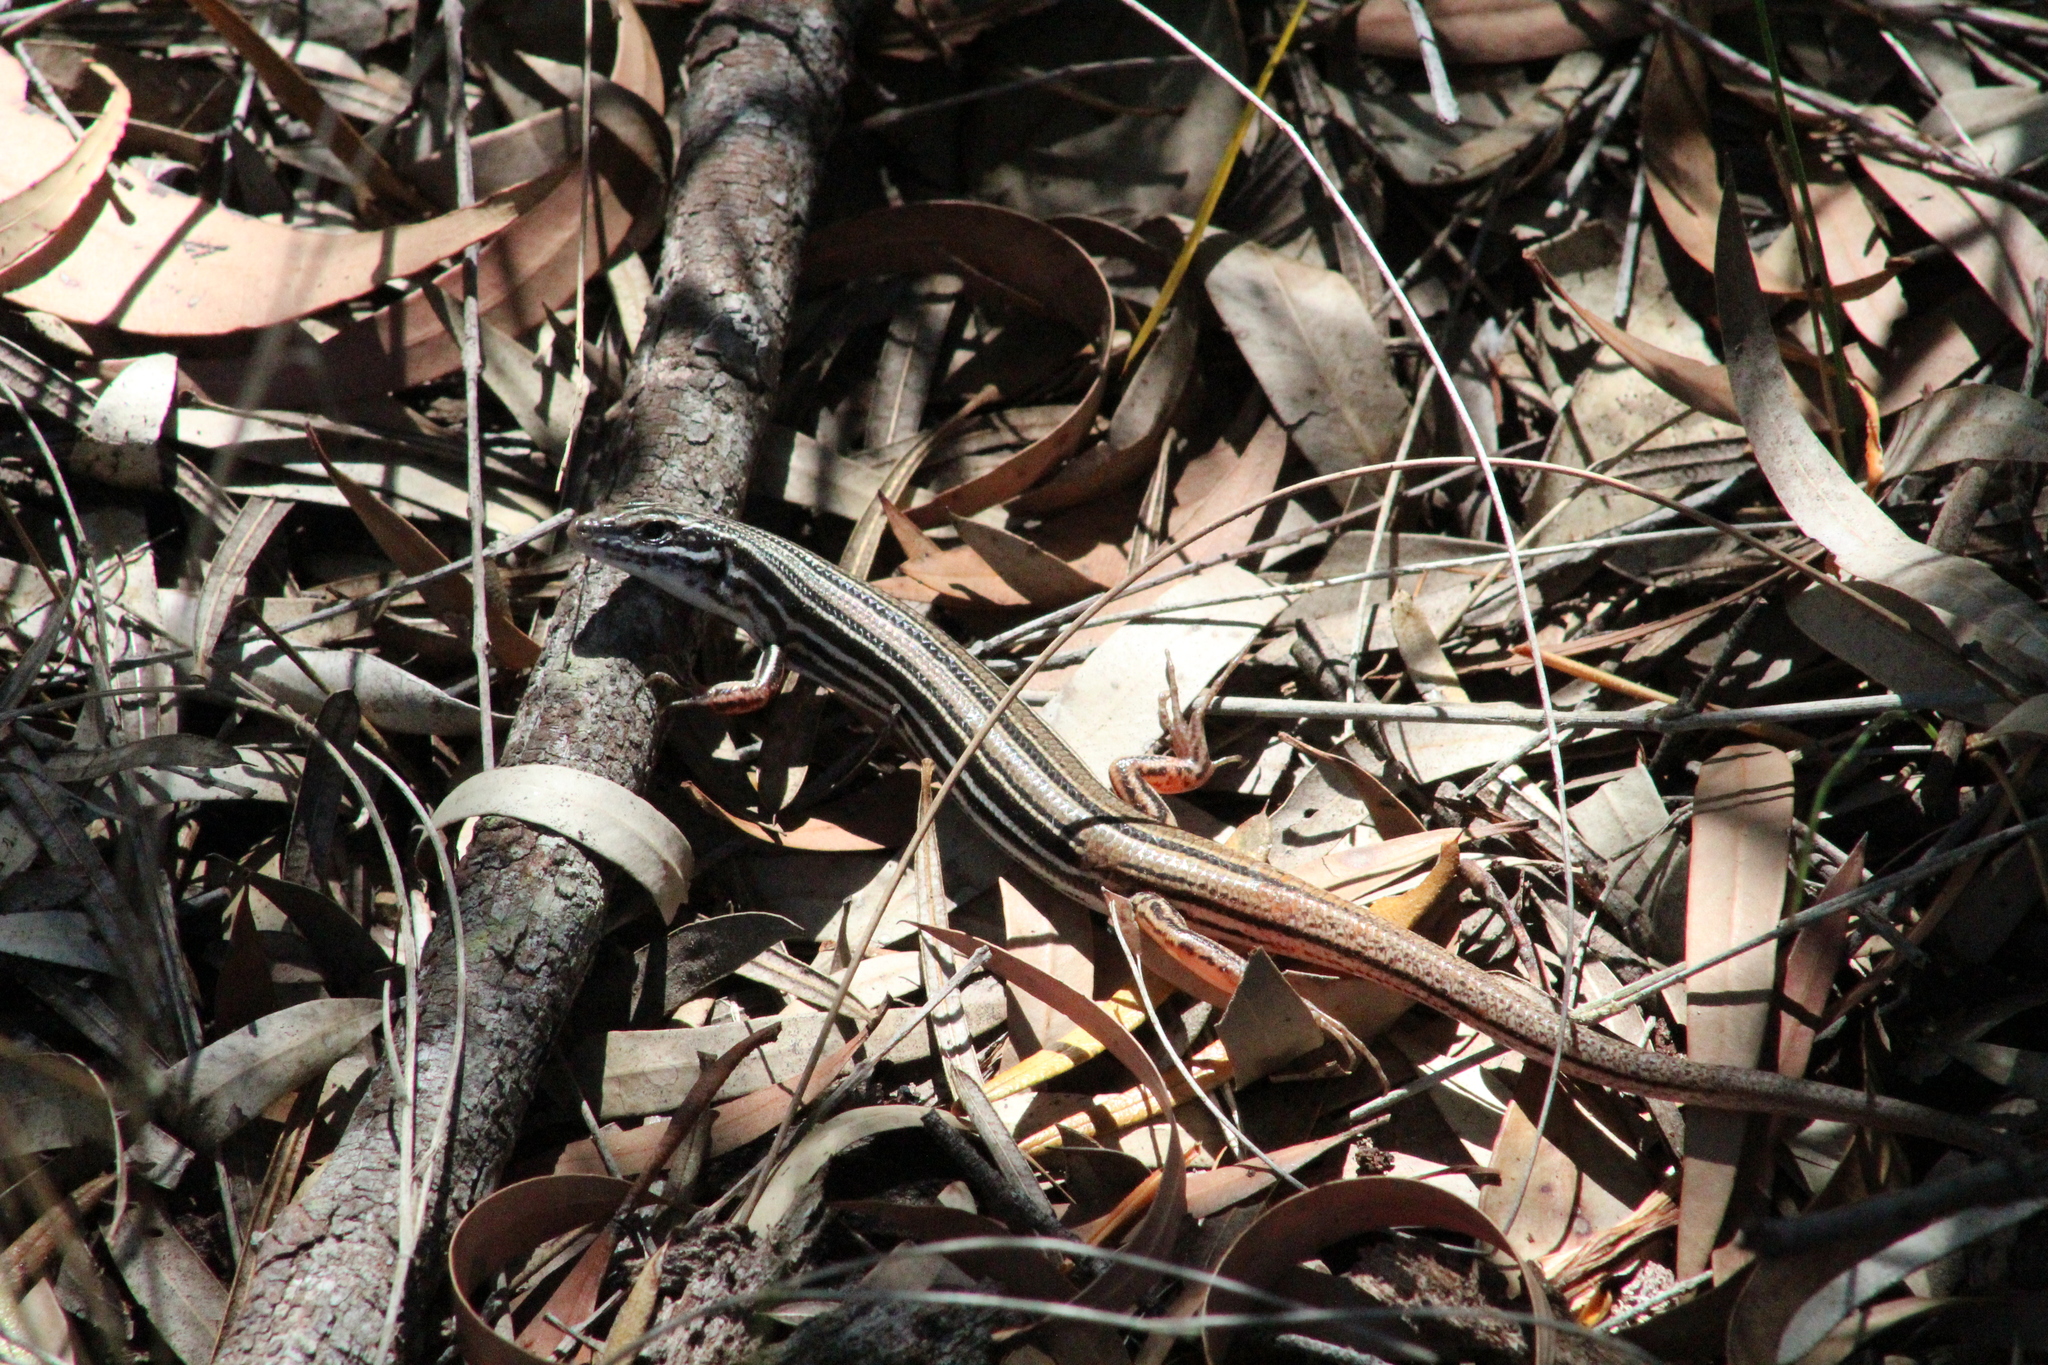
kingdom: Animalia
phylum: Chordata
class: Squamata
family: Scincidae
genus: Ctenotus
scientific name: Ctenotus taeniolatus
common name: Copper-tailed skink
